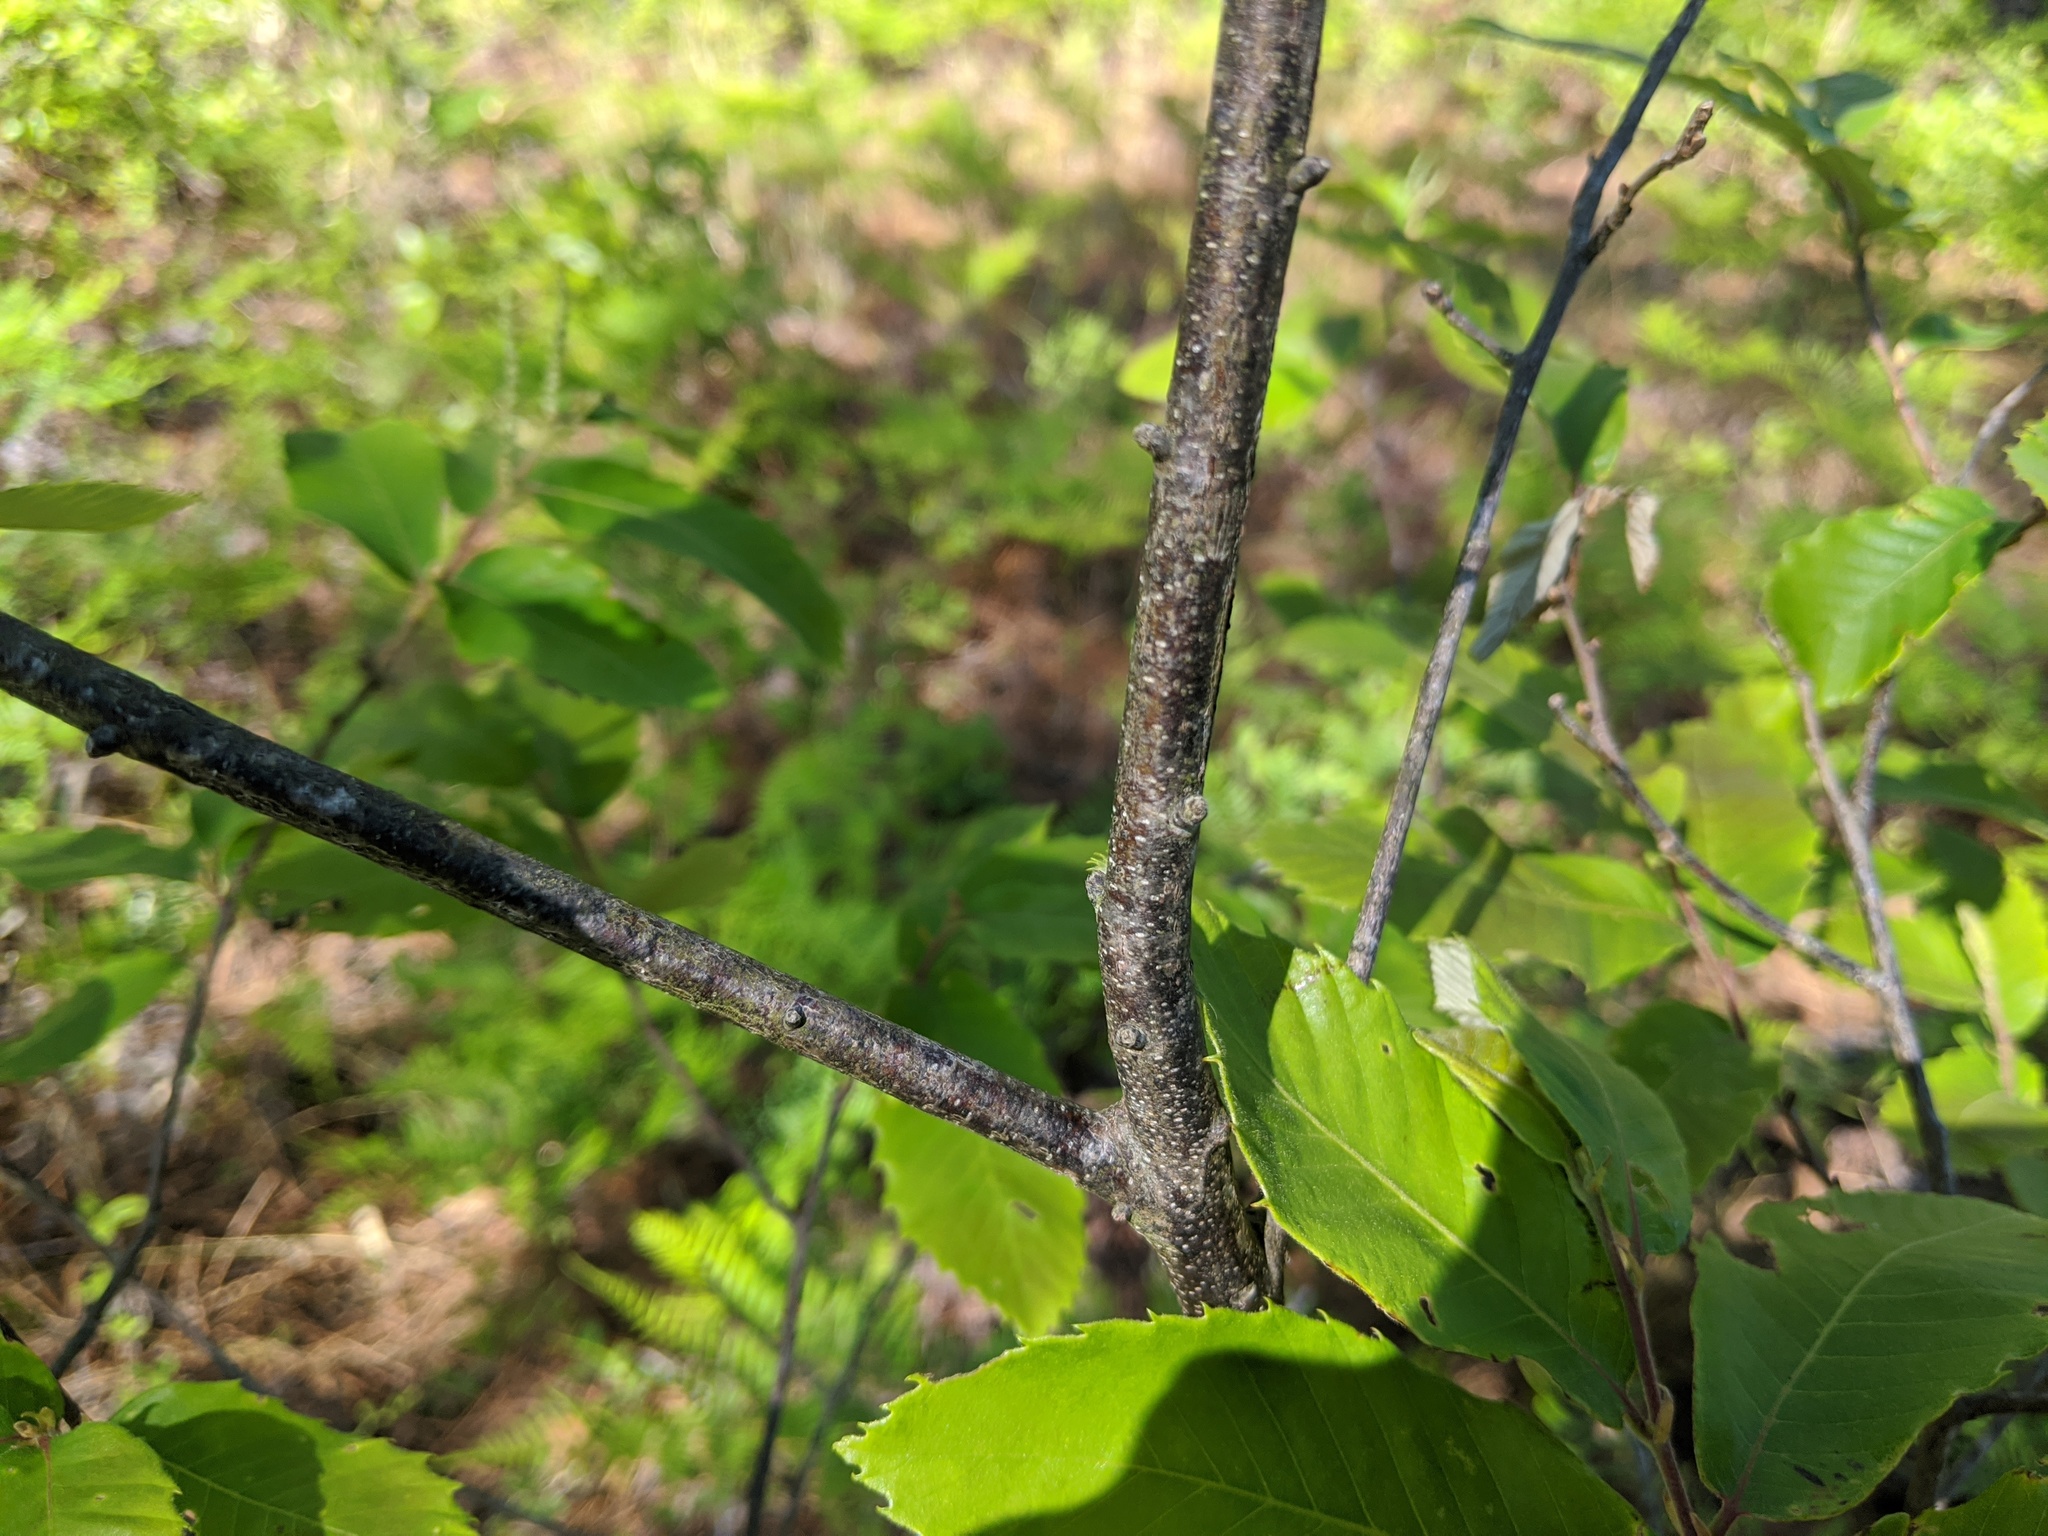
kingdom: Plantae
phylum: Tracheophyta
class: Magnoliopsida
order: Fagales
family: Fagaceae
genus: Castanea
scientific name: Castanea pumila
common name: Chinkapin
